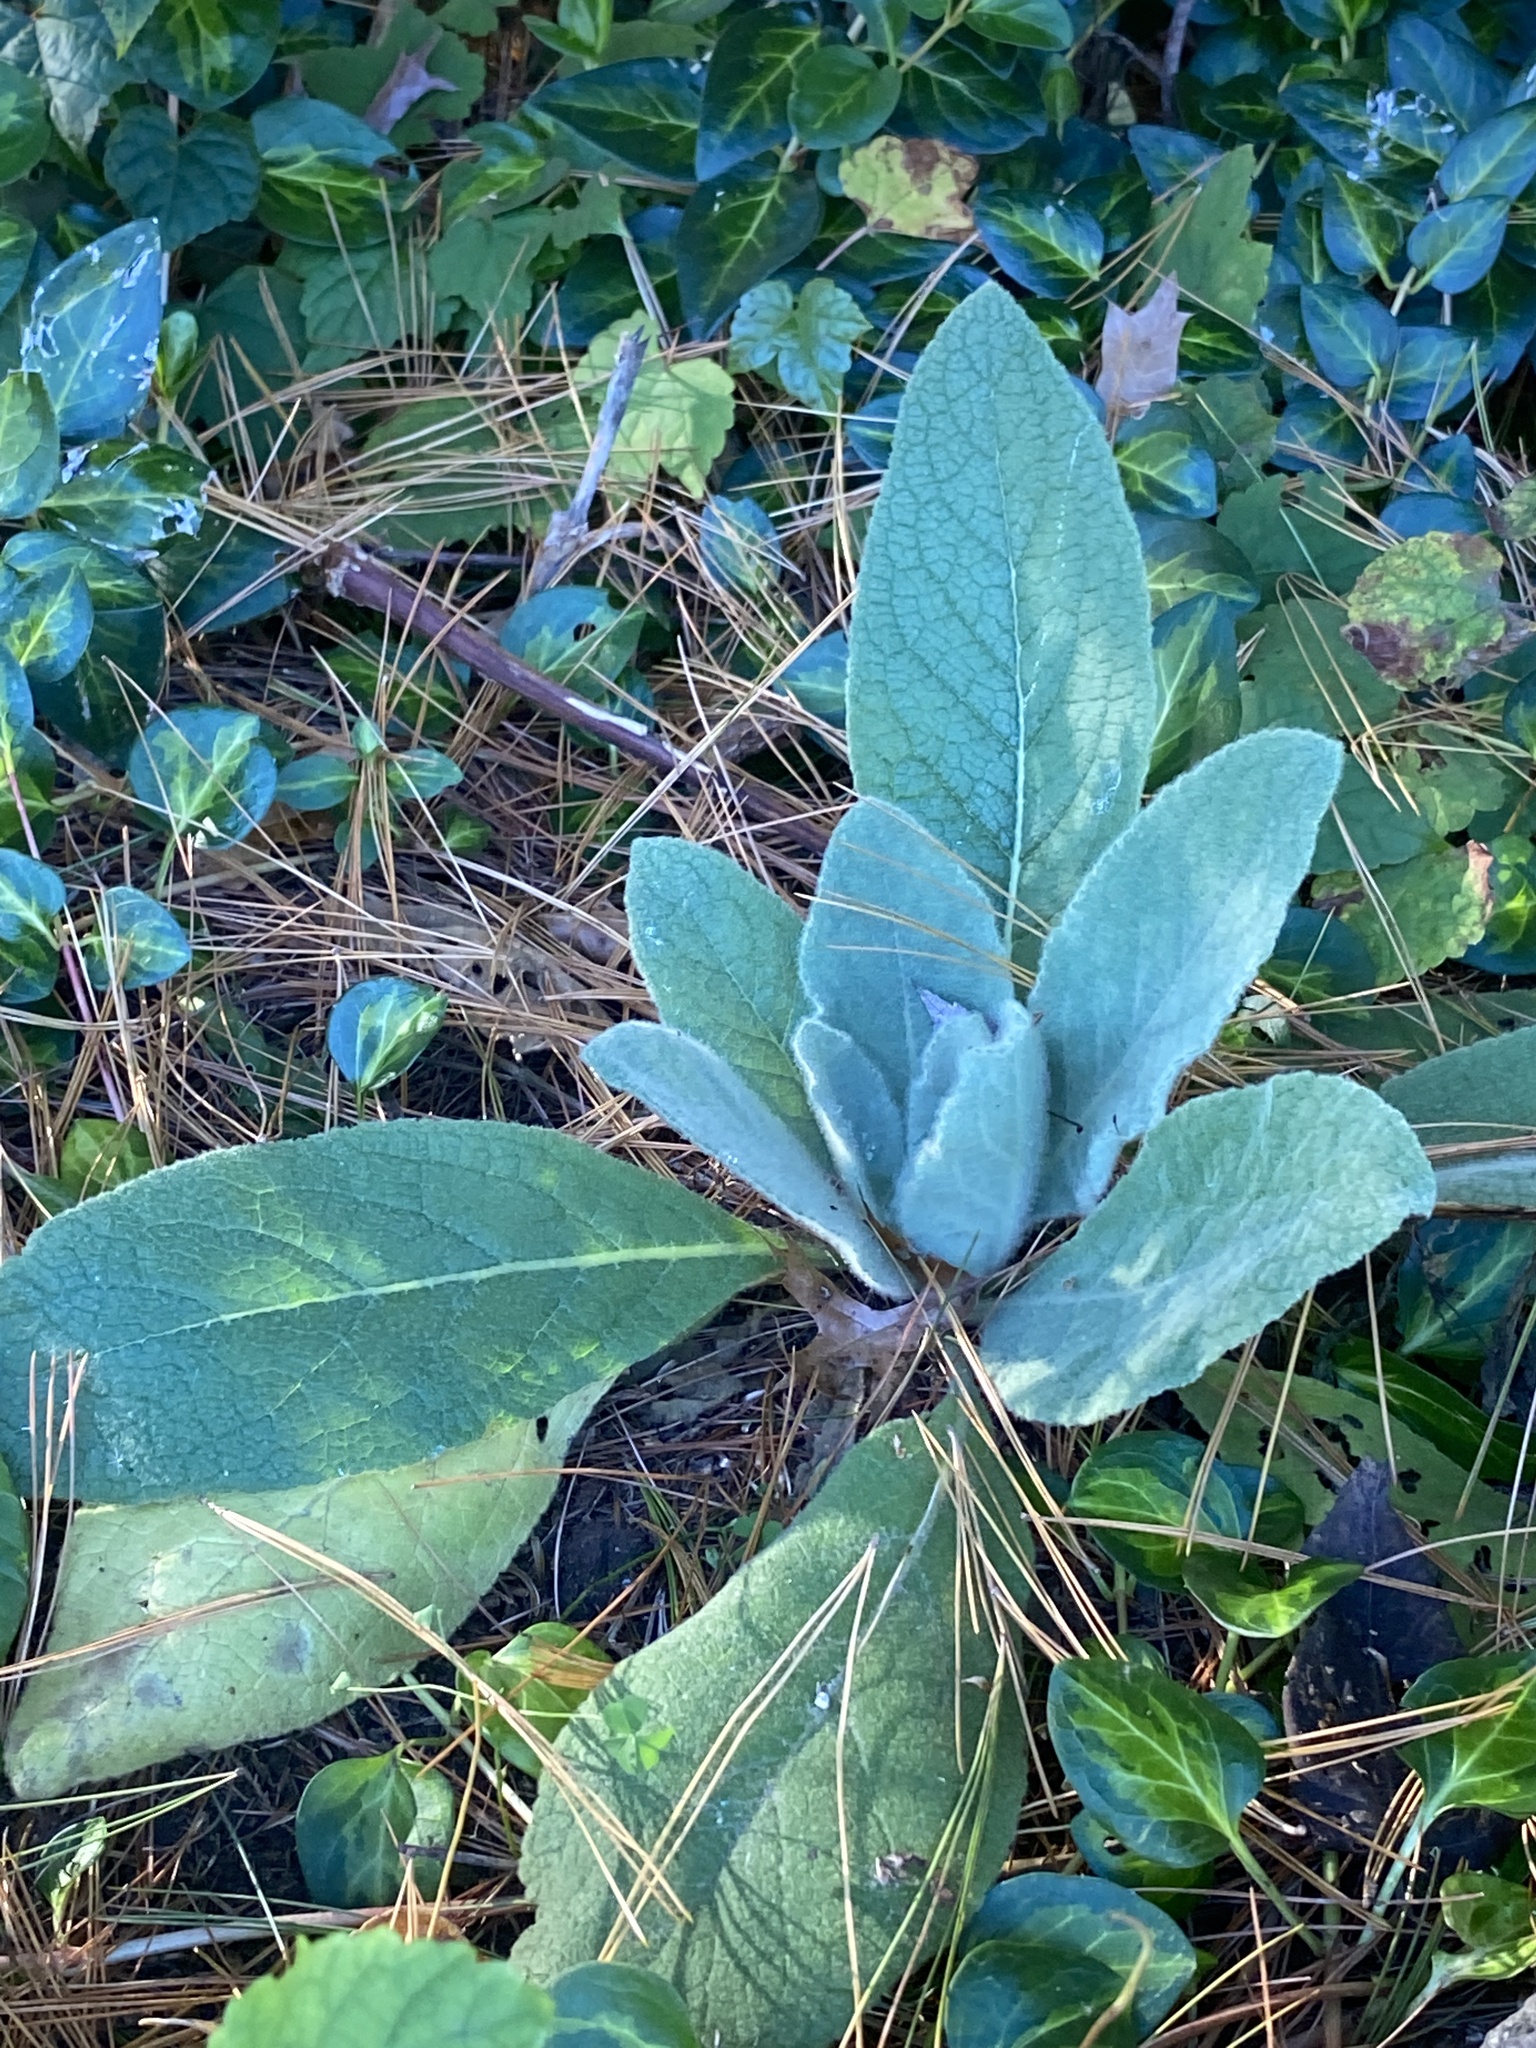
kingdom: Plantae
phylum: Tracheophyta
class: Magnoliopsida
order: Lamiales
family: Scrophulariaceae
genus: Verbascum
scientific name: Verbascum thapsus
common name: Common mullein
